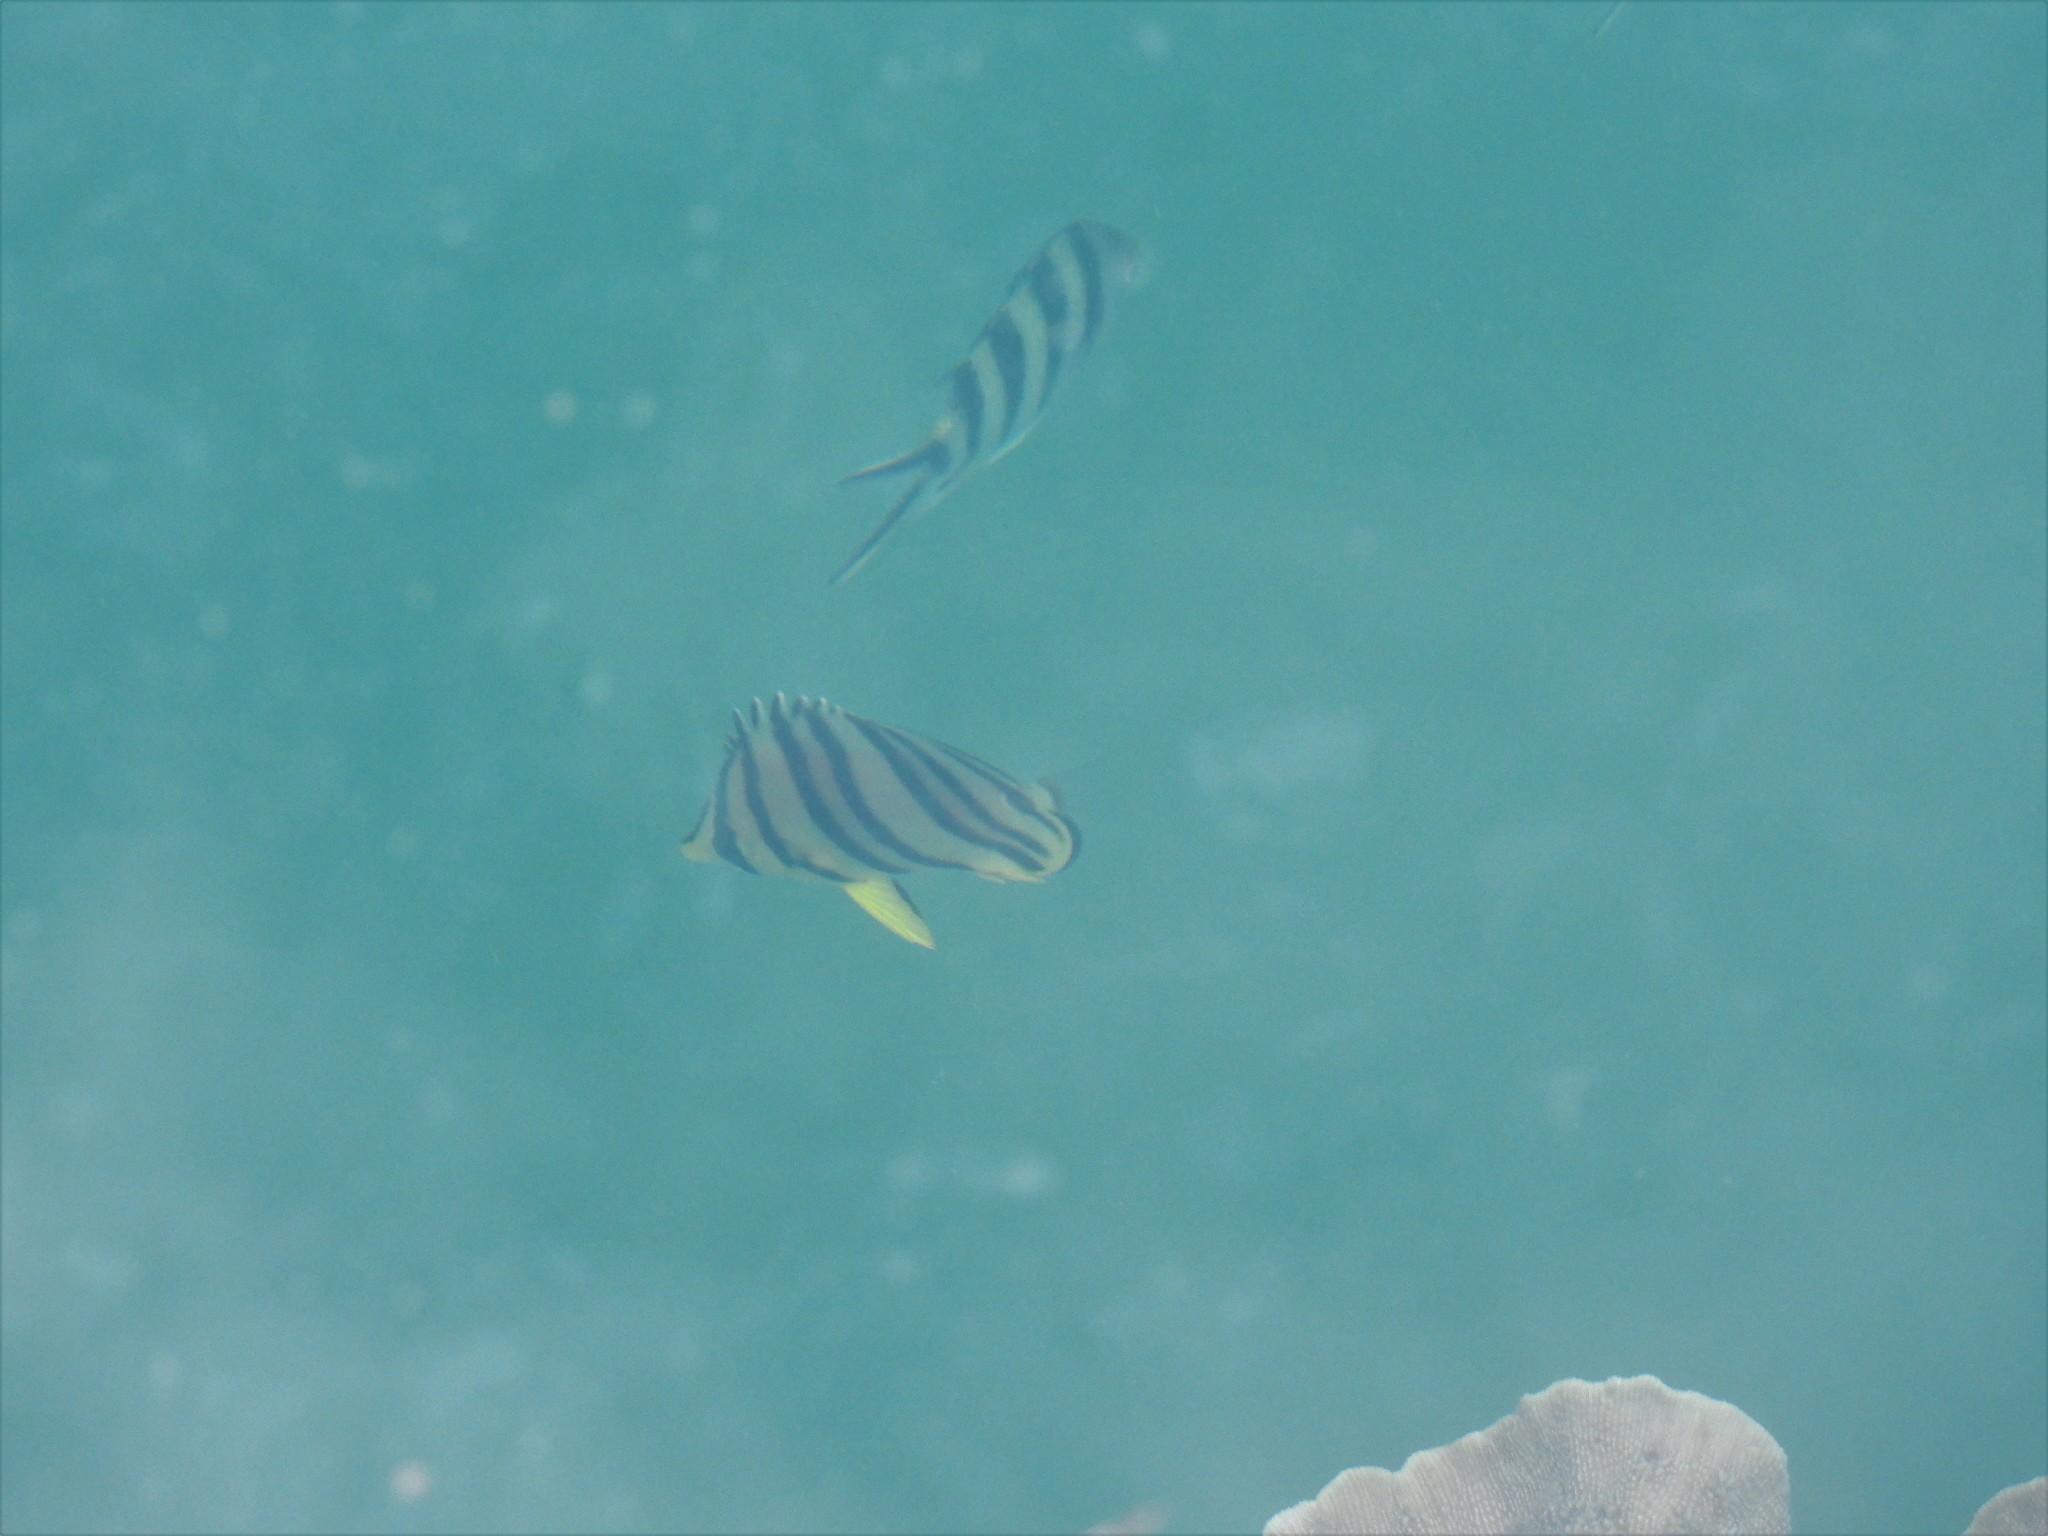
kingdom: Animalia
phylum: Chordata
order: Perciformes
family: Chaetodontidae
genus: Chaetodon
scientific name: Chaetodon octofasciatus
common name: Eightband butterflyfish
